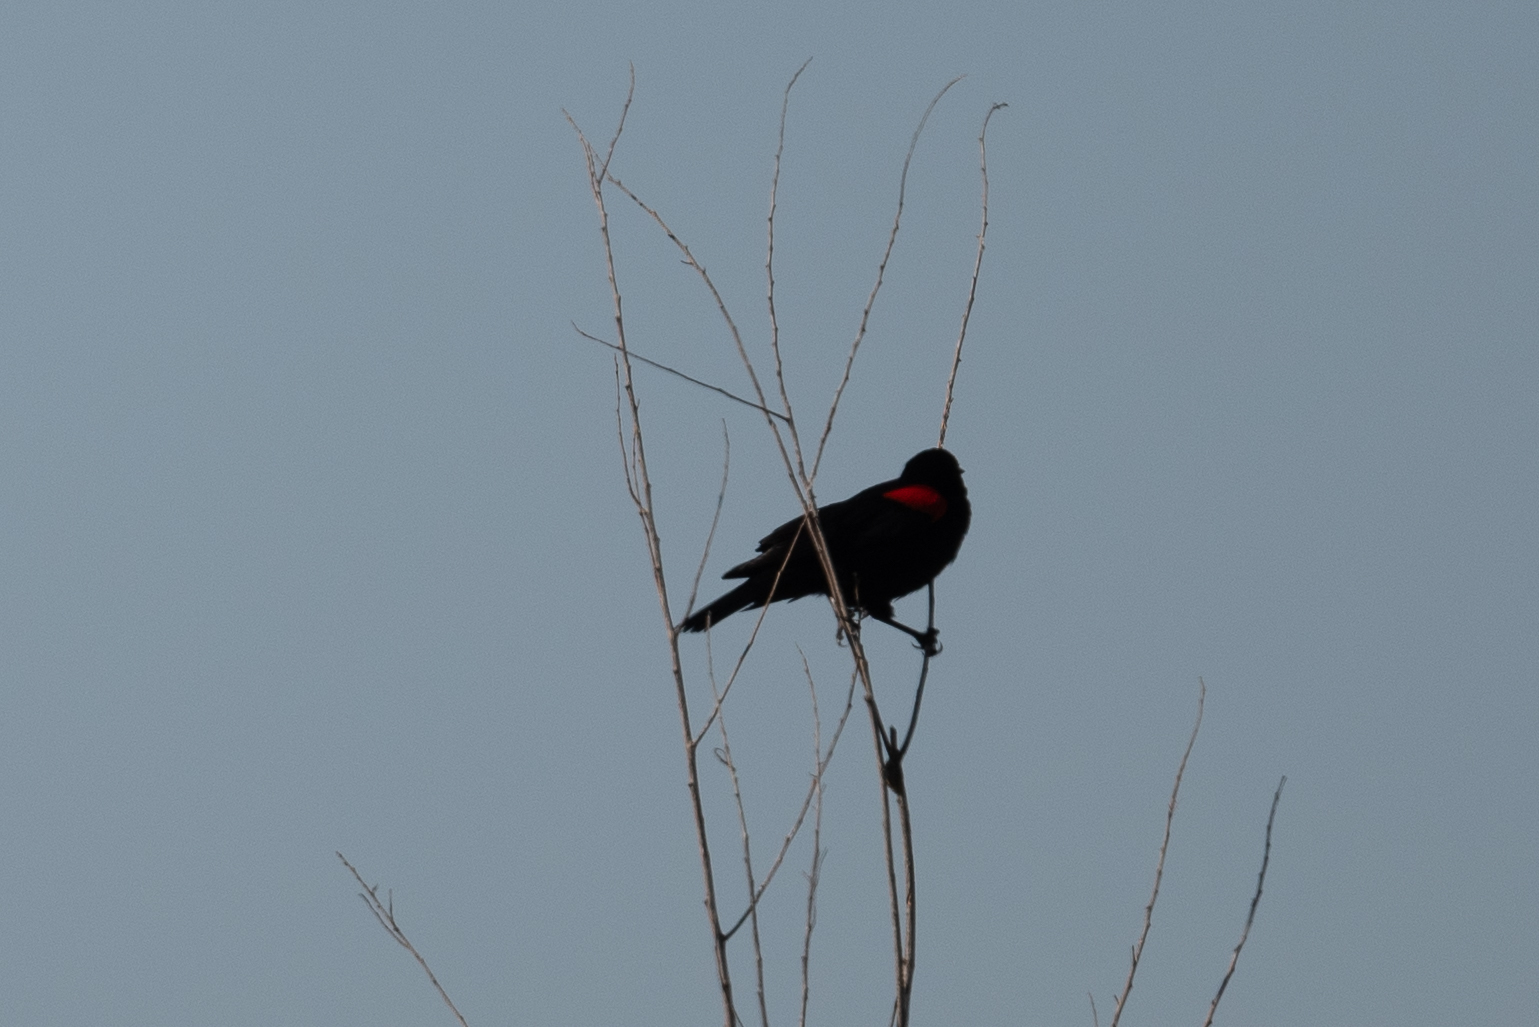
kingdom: Animalia
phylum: Chordata
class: Aves
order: Passeriformes
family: Icteridae
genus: Agelaius
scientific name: Agelaius phoeniceus
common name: Red-winged blackbird
